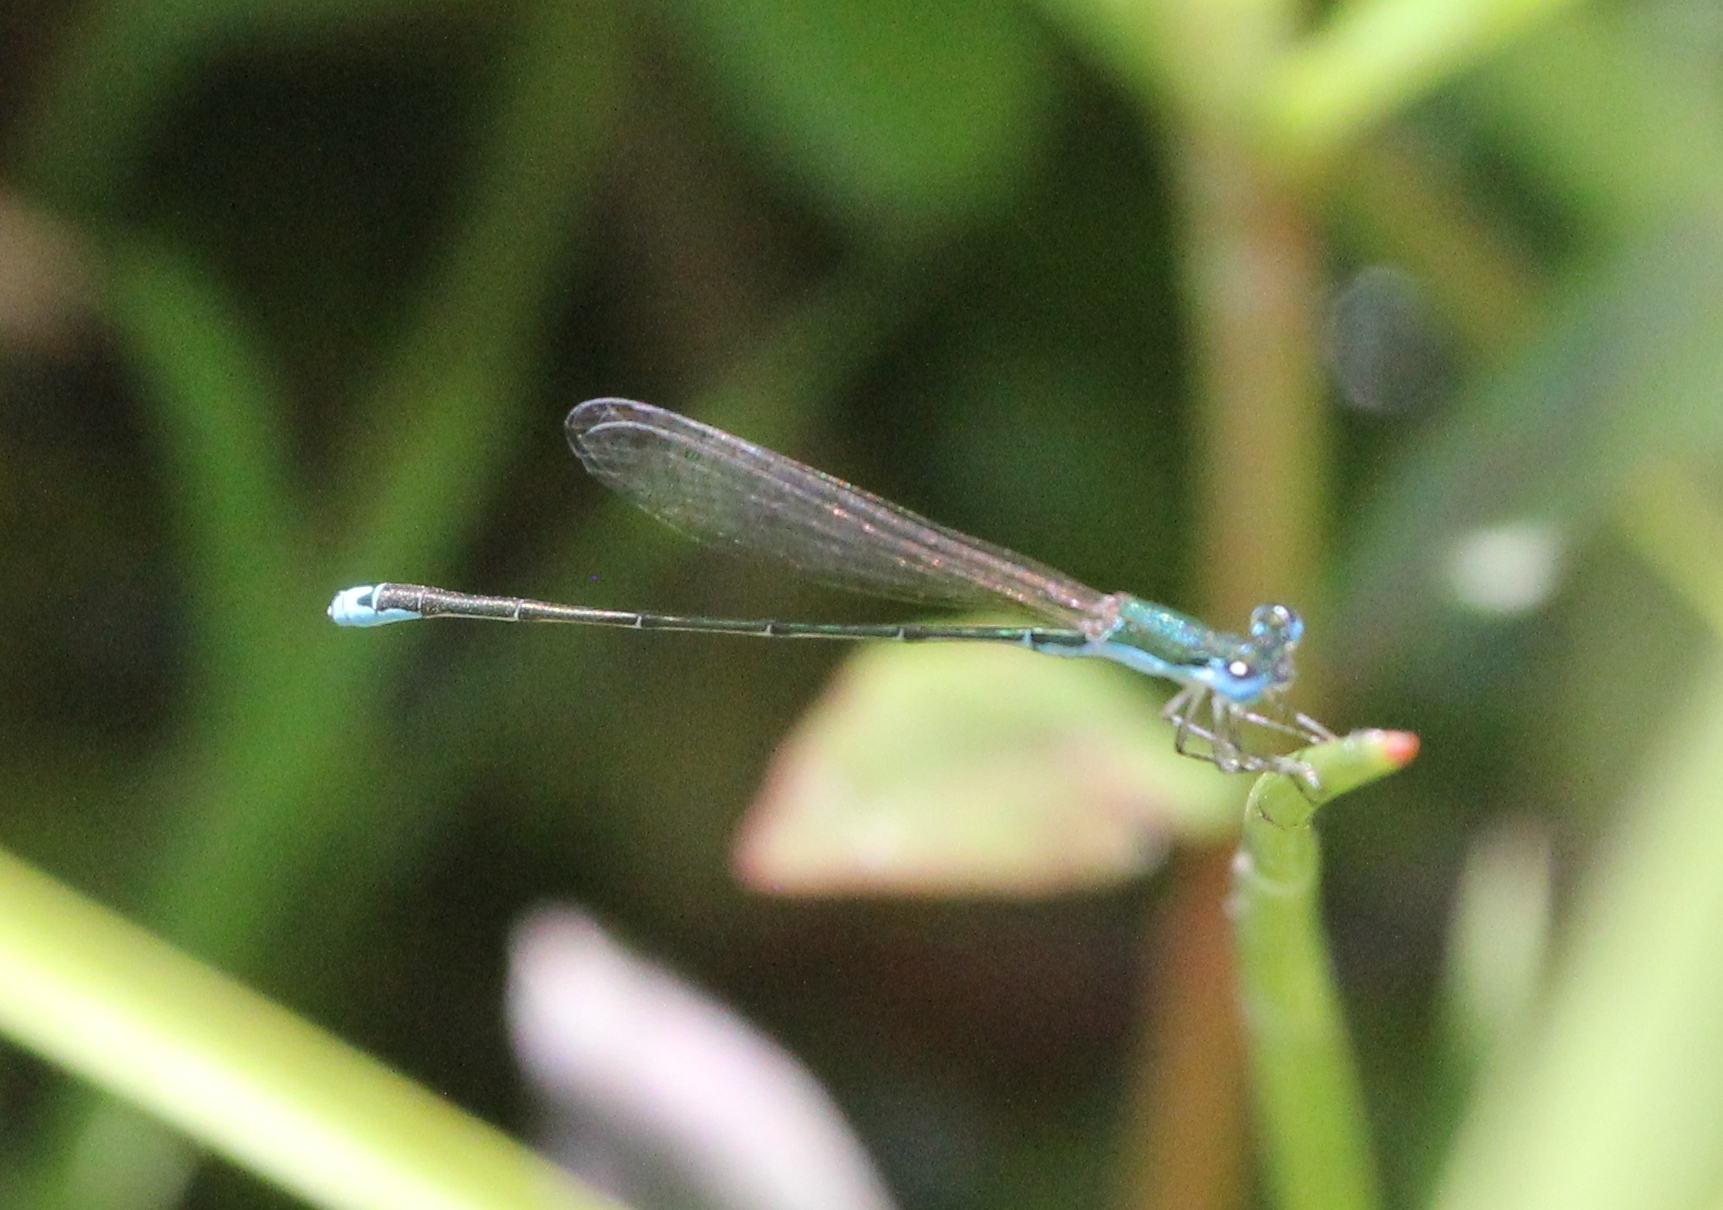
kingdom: Animalia
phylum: Arthropoda
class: Insecta
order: Odonata
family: Coenagrionidae
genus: Nehalennia
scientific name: Nehalennia integricollis
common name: Southern sprite
